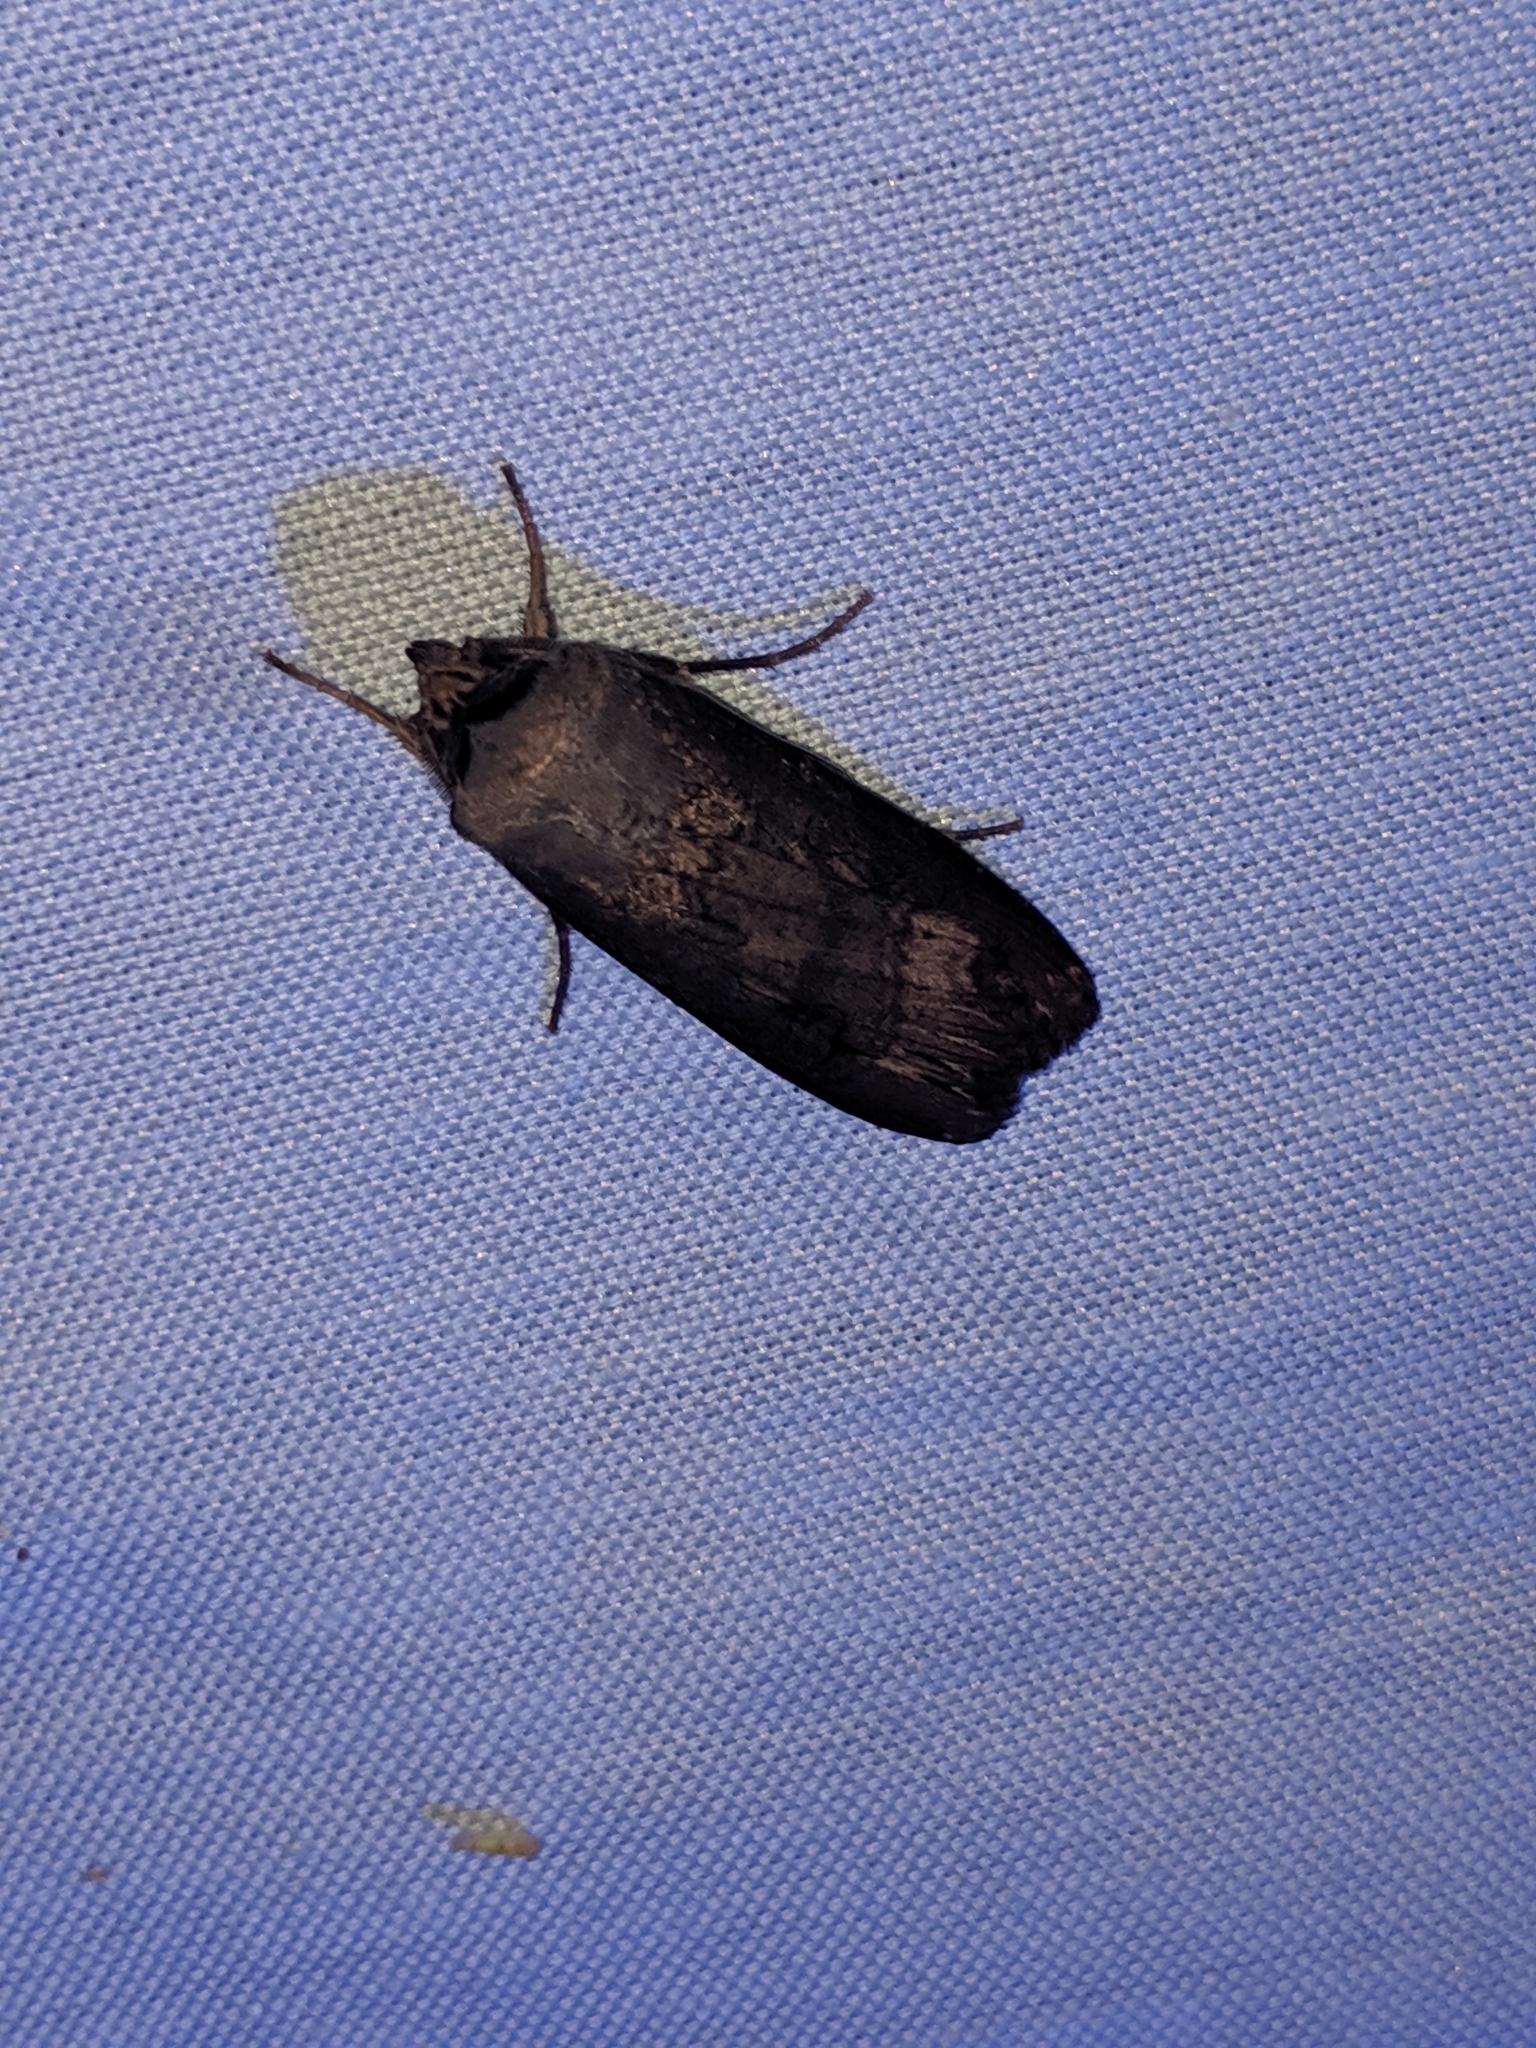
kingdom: Animalia
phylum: Arthropoda
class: Insecta
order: Lepidoptera
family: Noctuidae
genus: Agrotis
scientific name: Agrotis ipsilon
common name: Dark sword-grass
